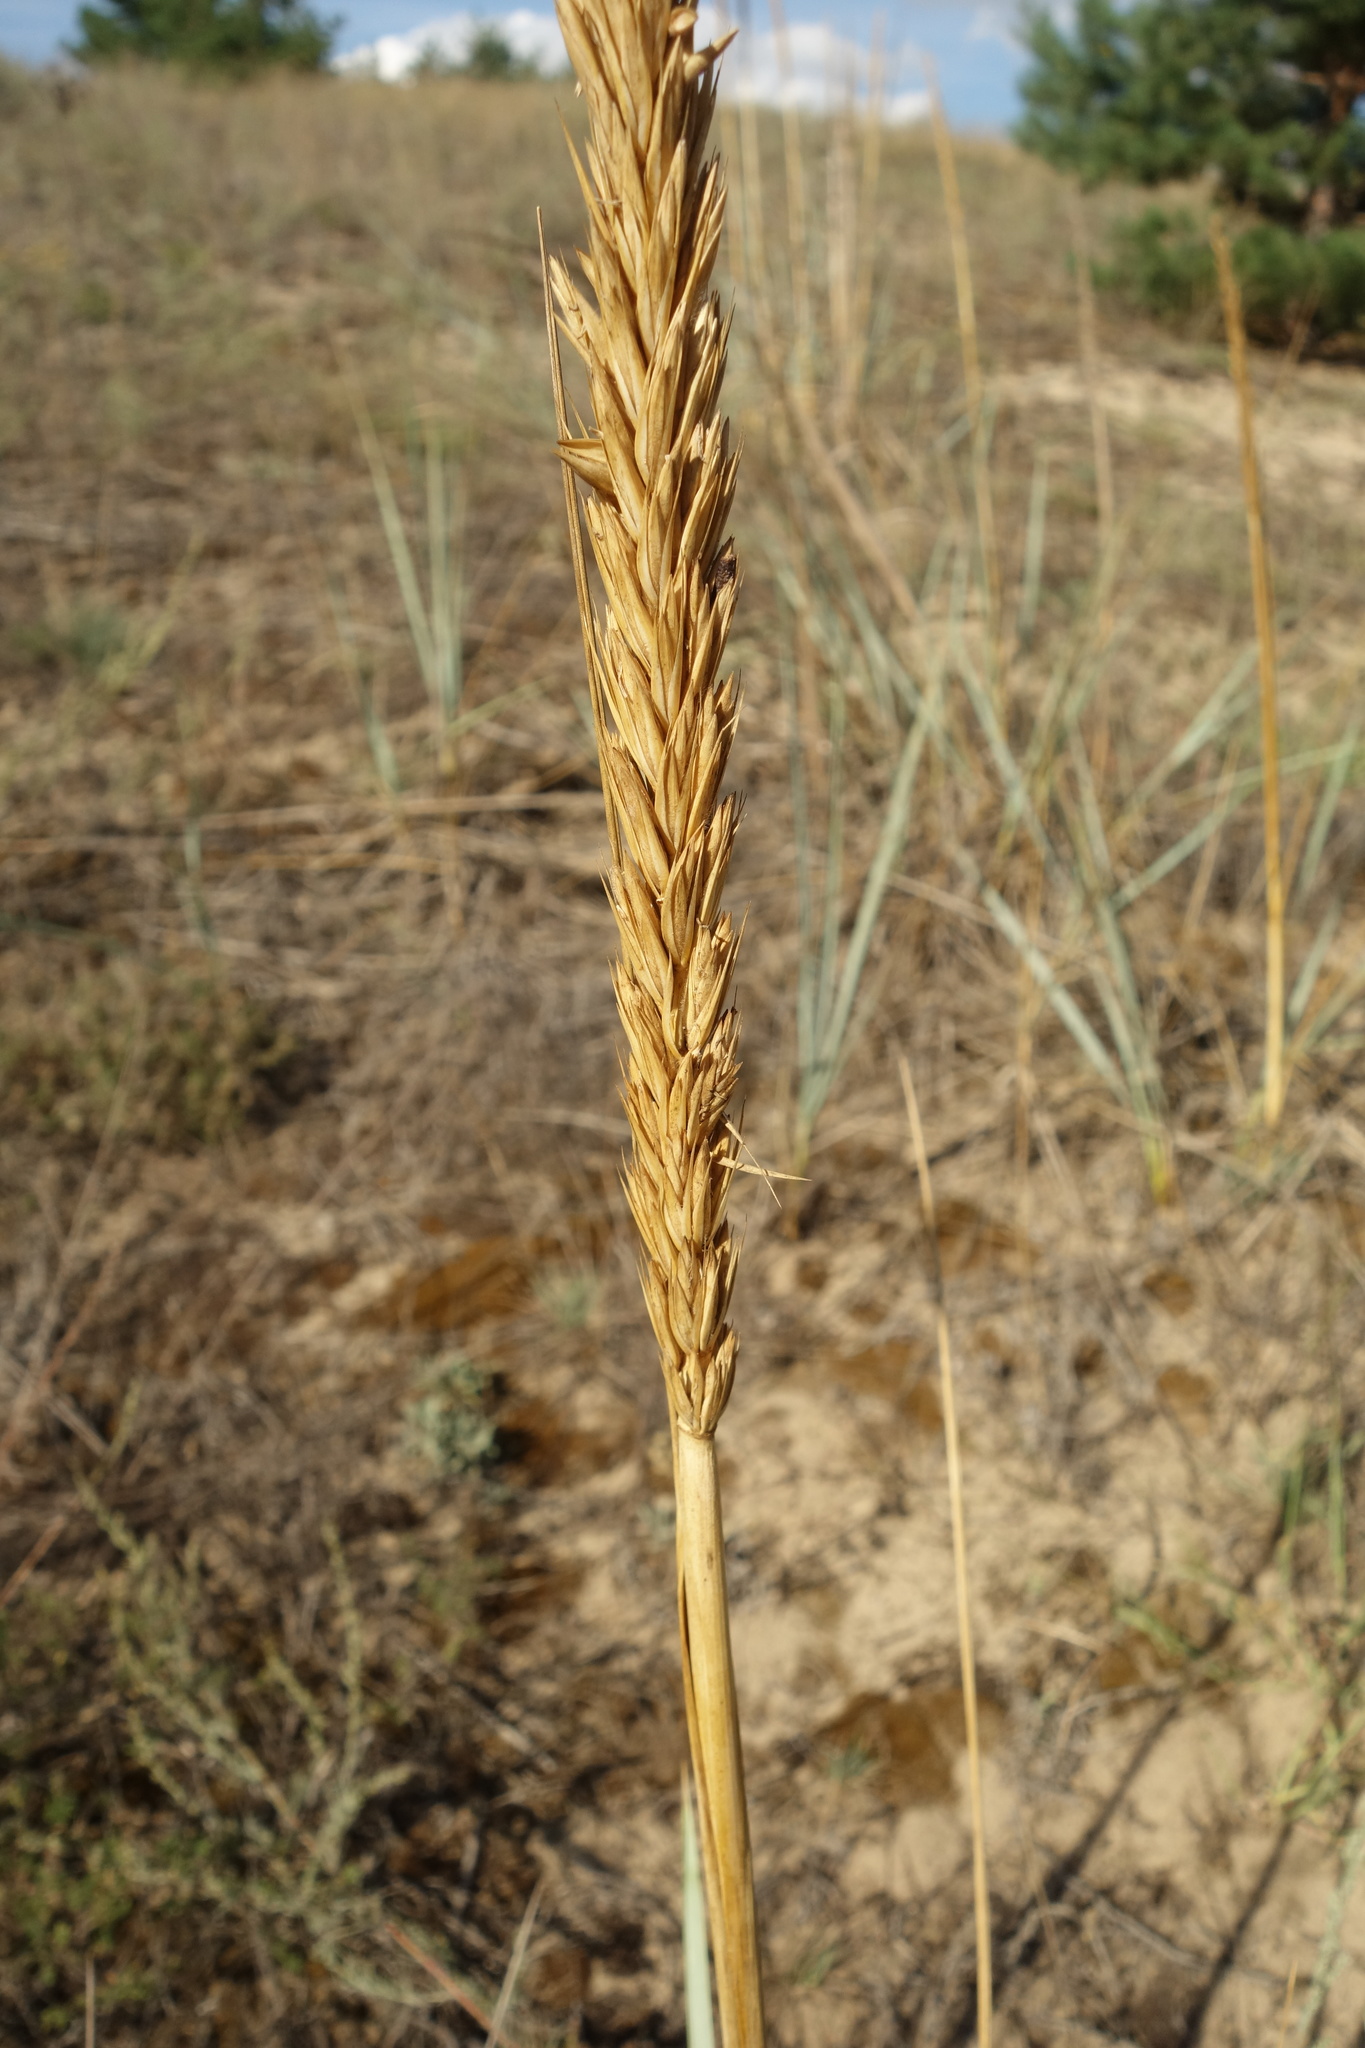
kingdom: Plantae
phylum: Tracheophyta
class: Liliopsida
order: Poales
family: Poaceae
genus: Leymus
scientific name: Leymus racemosus
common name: Mammoth wildrye
